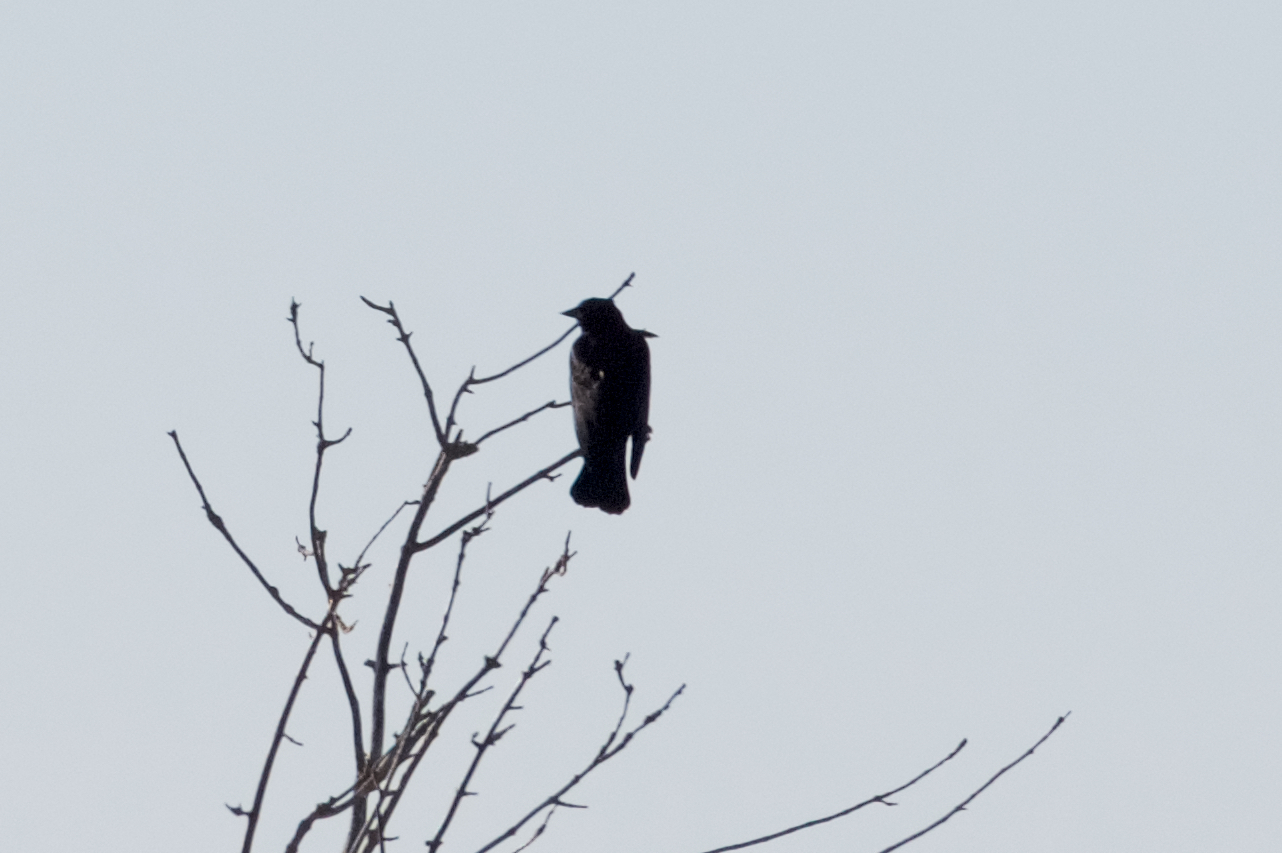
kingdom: Animalia
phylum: Chordata
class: Aves
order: Passeriformes
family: Icteridae
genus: Agelaius
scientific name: Agelaius phoeniceus
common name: Red-winged blackbird
